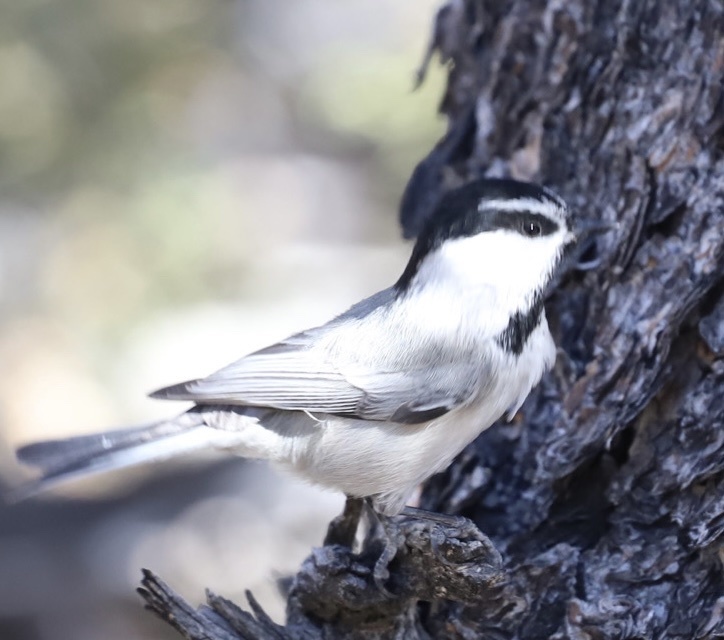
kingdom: Animalia
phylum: Chordata
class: Aves
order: Passeriformes
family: Paridae
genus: Poecile
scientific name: Poecile gambeli
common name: Mountain chickadee
